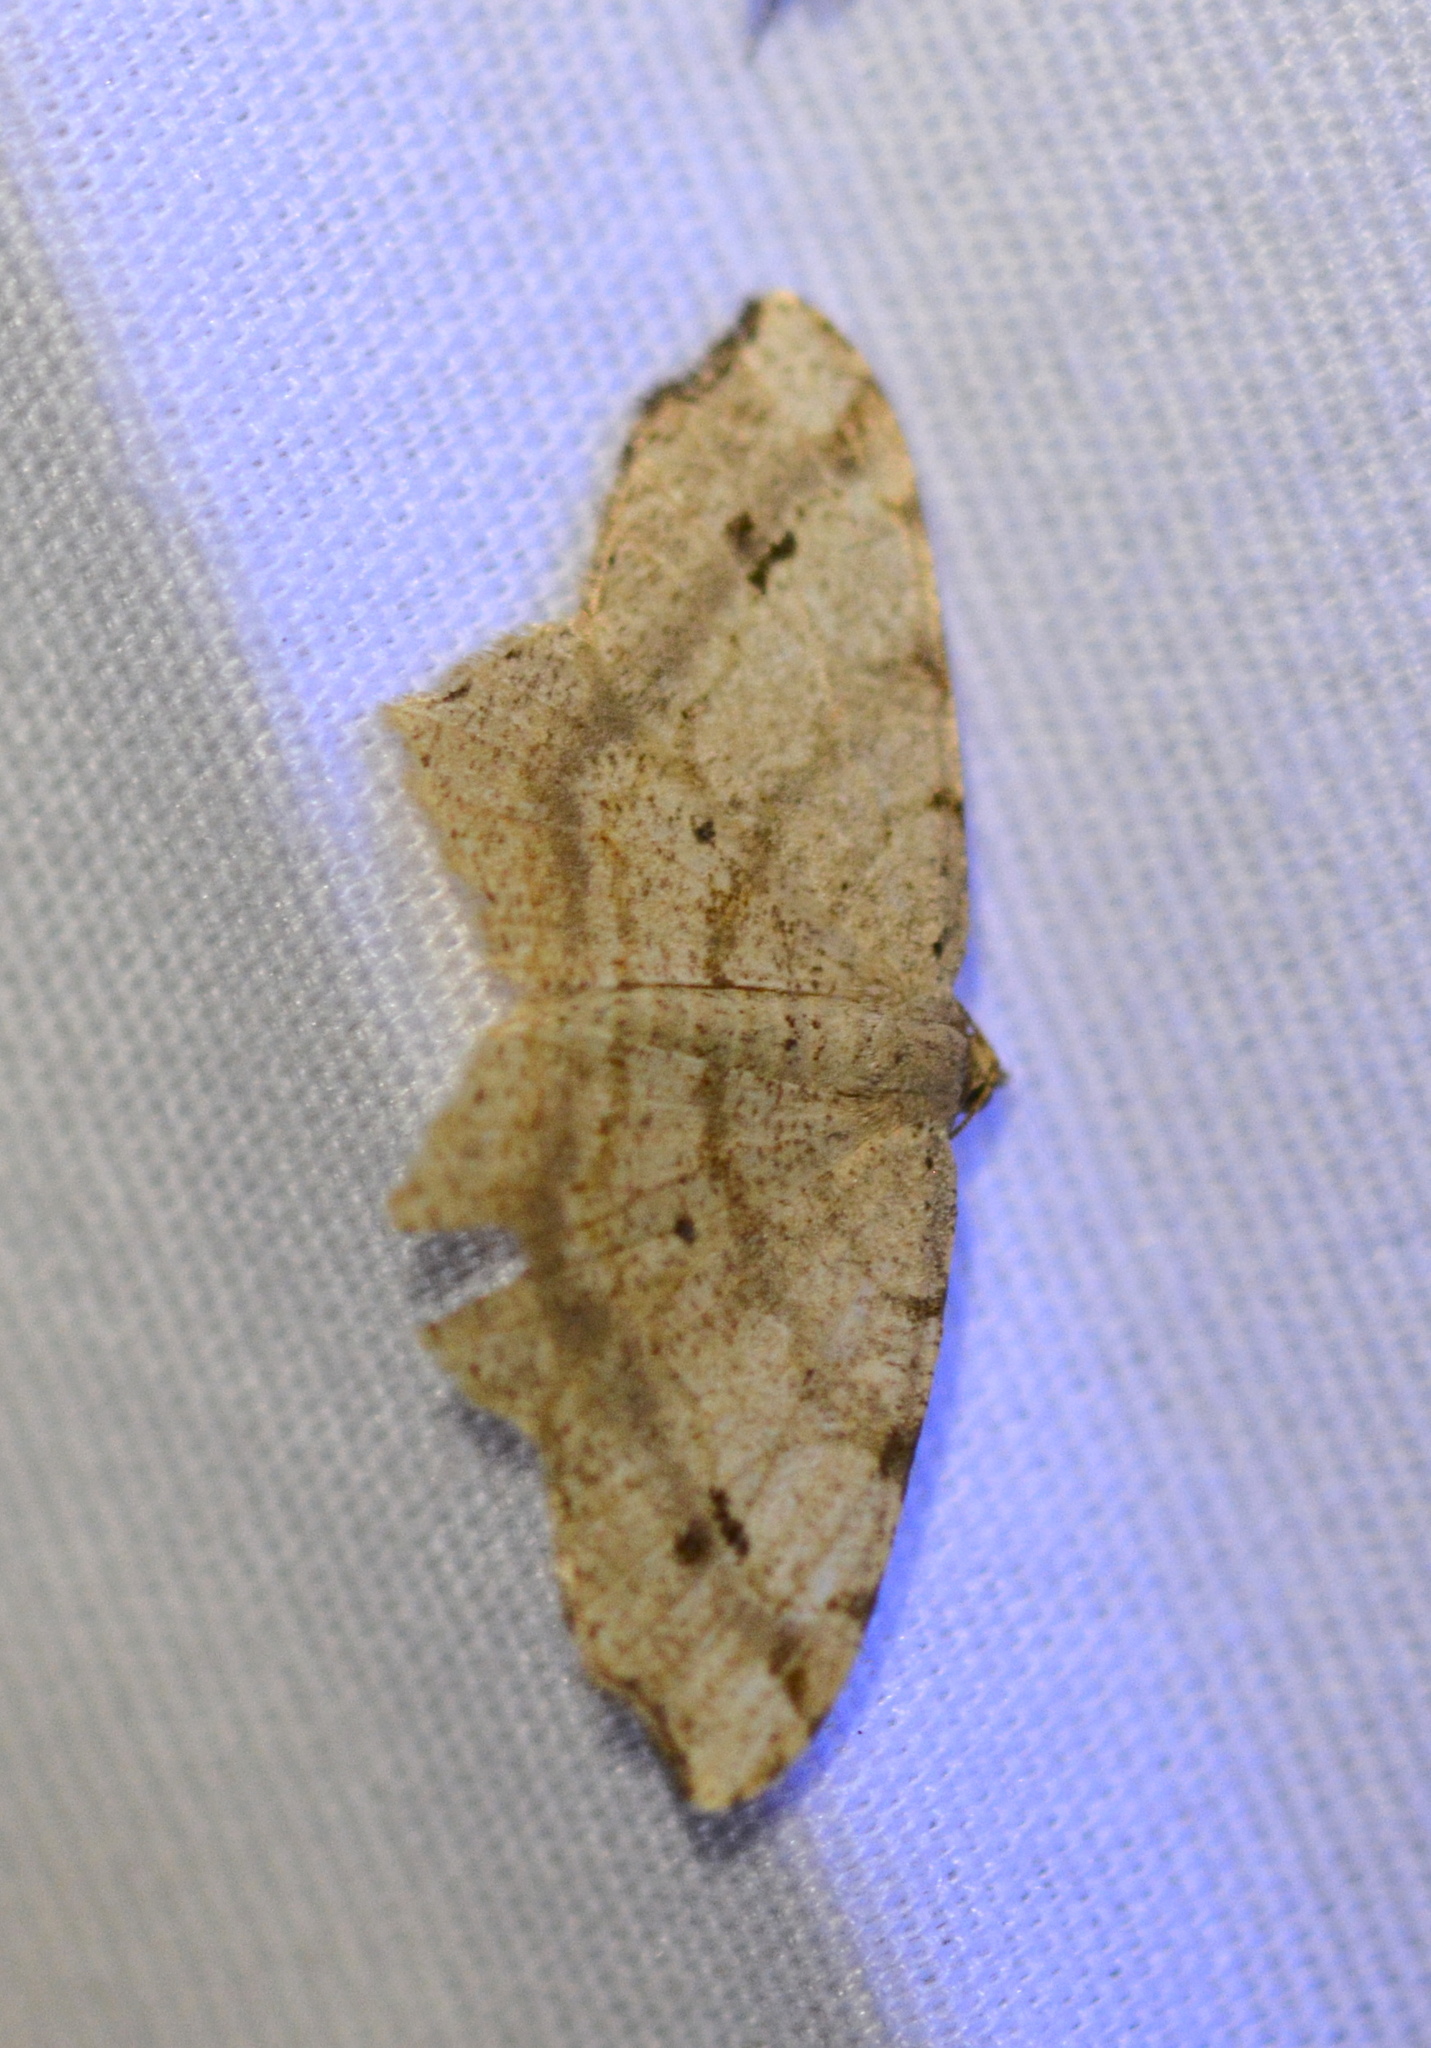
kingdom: Animalia
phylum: Arthropoda
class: Insecta
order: Lepidoptera
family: Geometridae
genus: Macaria
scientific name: Macaria abydata
